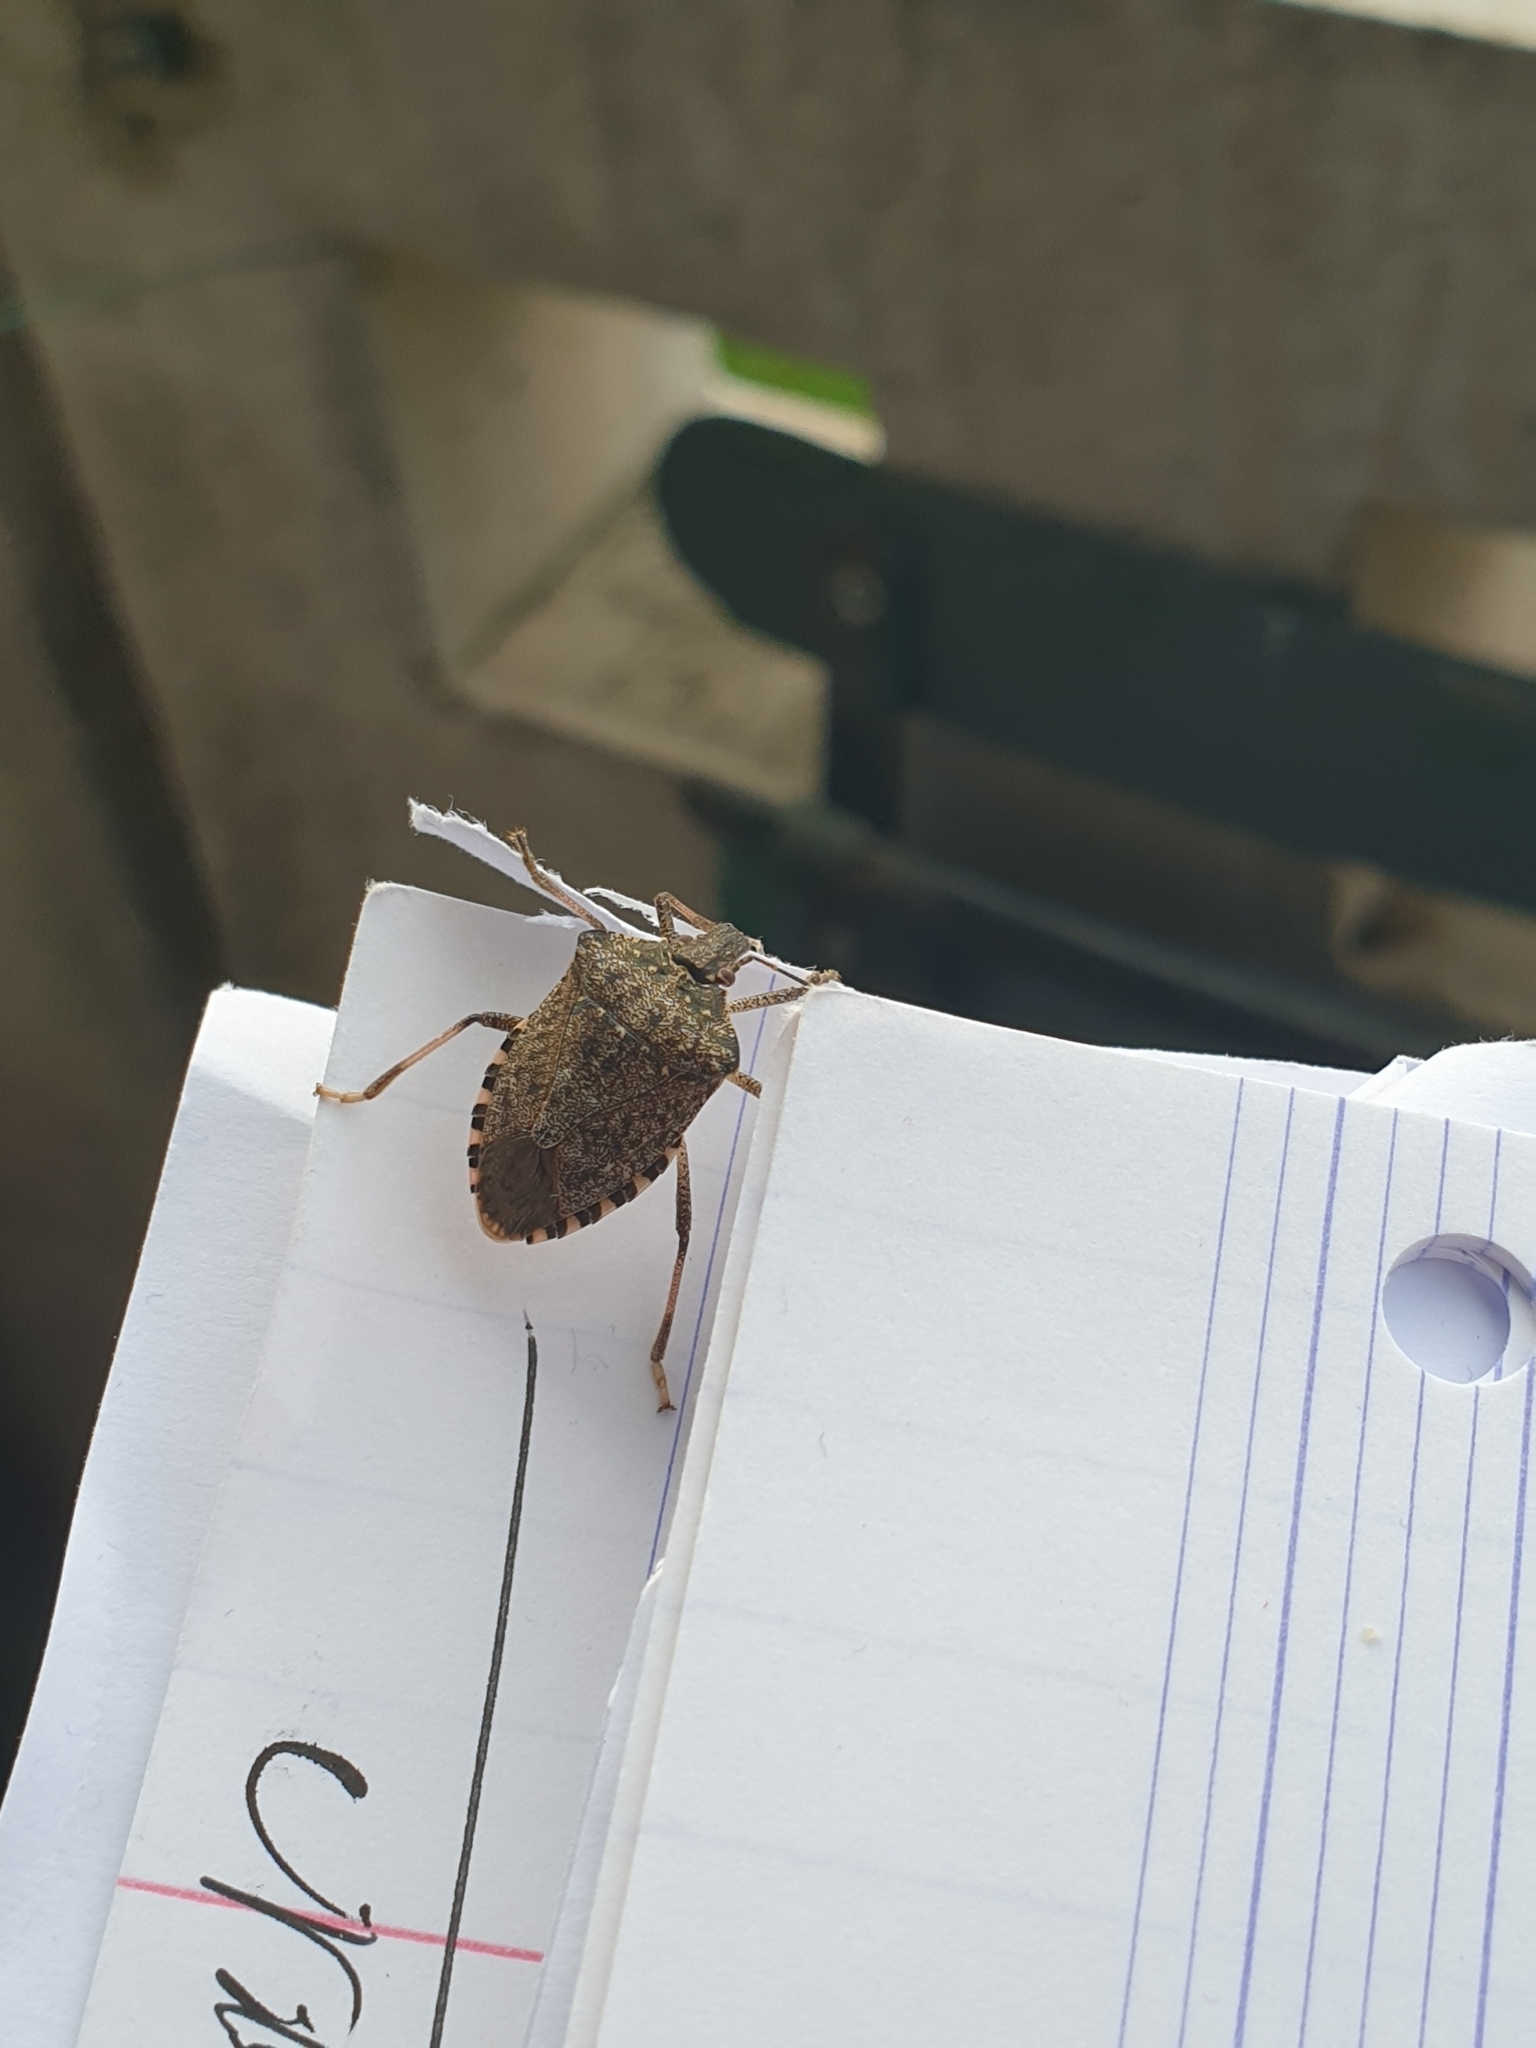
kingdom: Animalia
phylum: Arthropoda
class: Insecta
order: Hemiptera
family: Pentatomidae
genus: Halyomorpha
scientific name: Halyomorpha halys
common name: Brown marmorated stink bug
